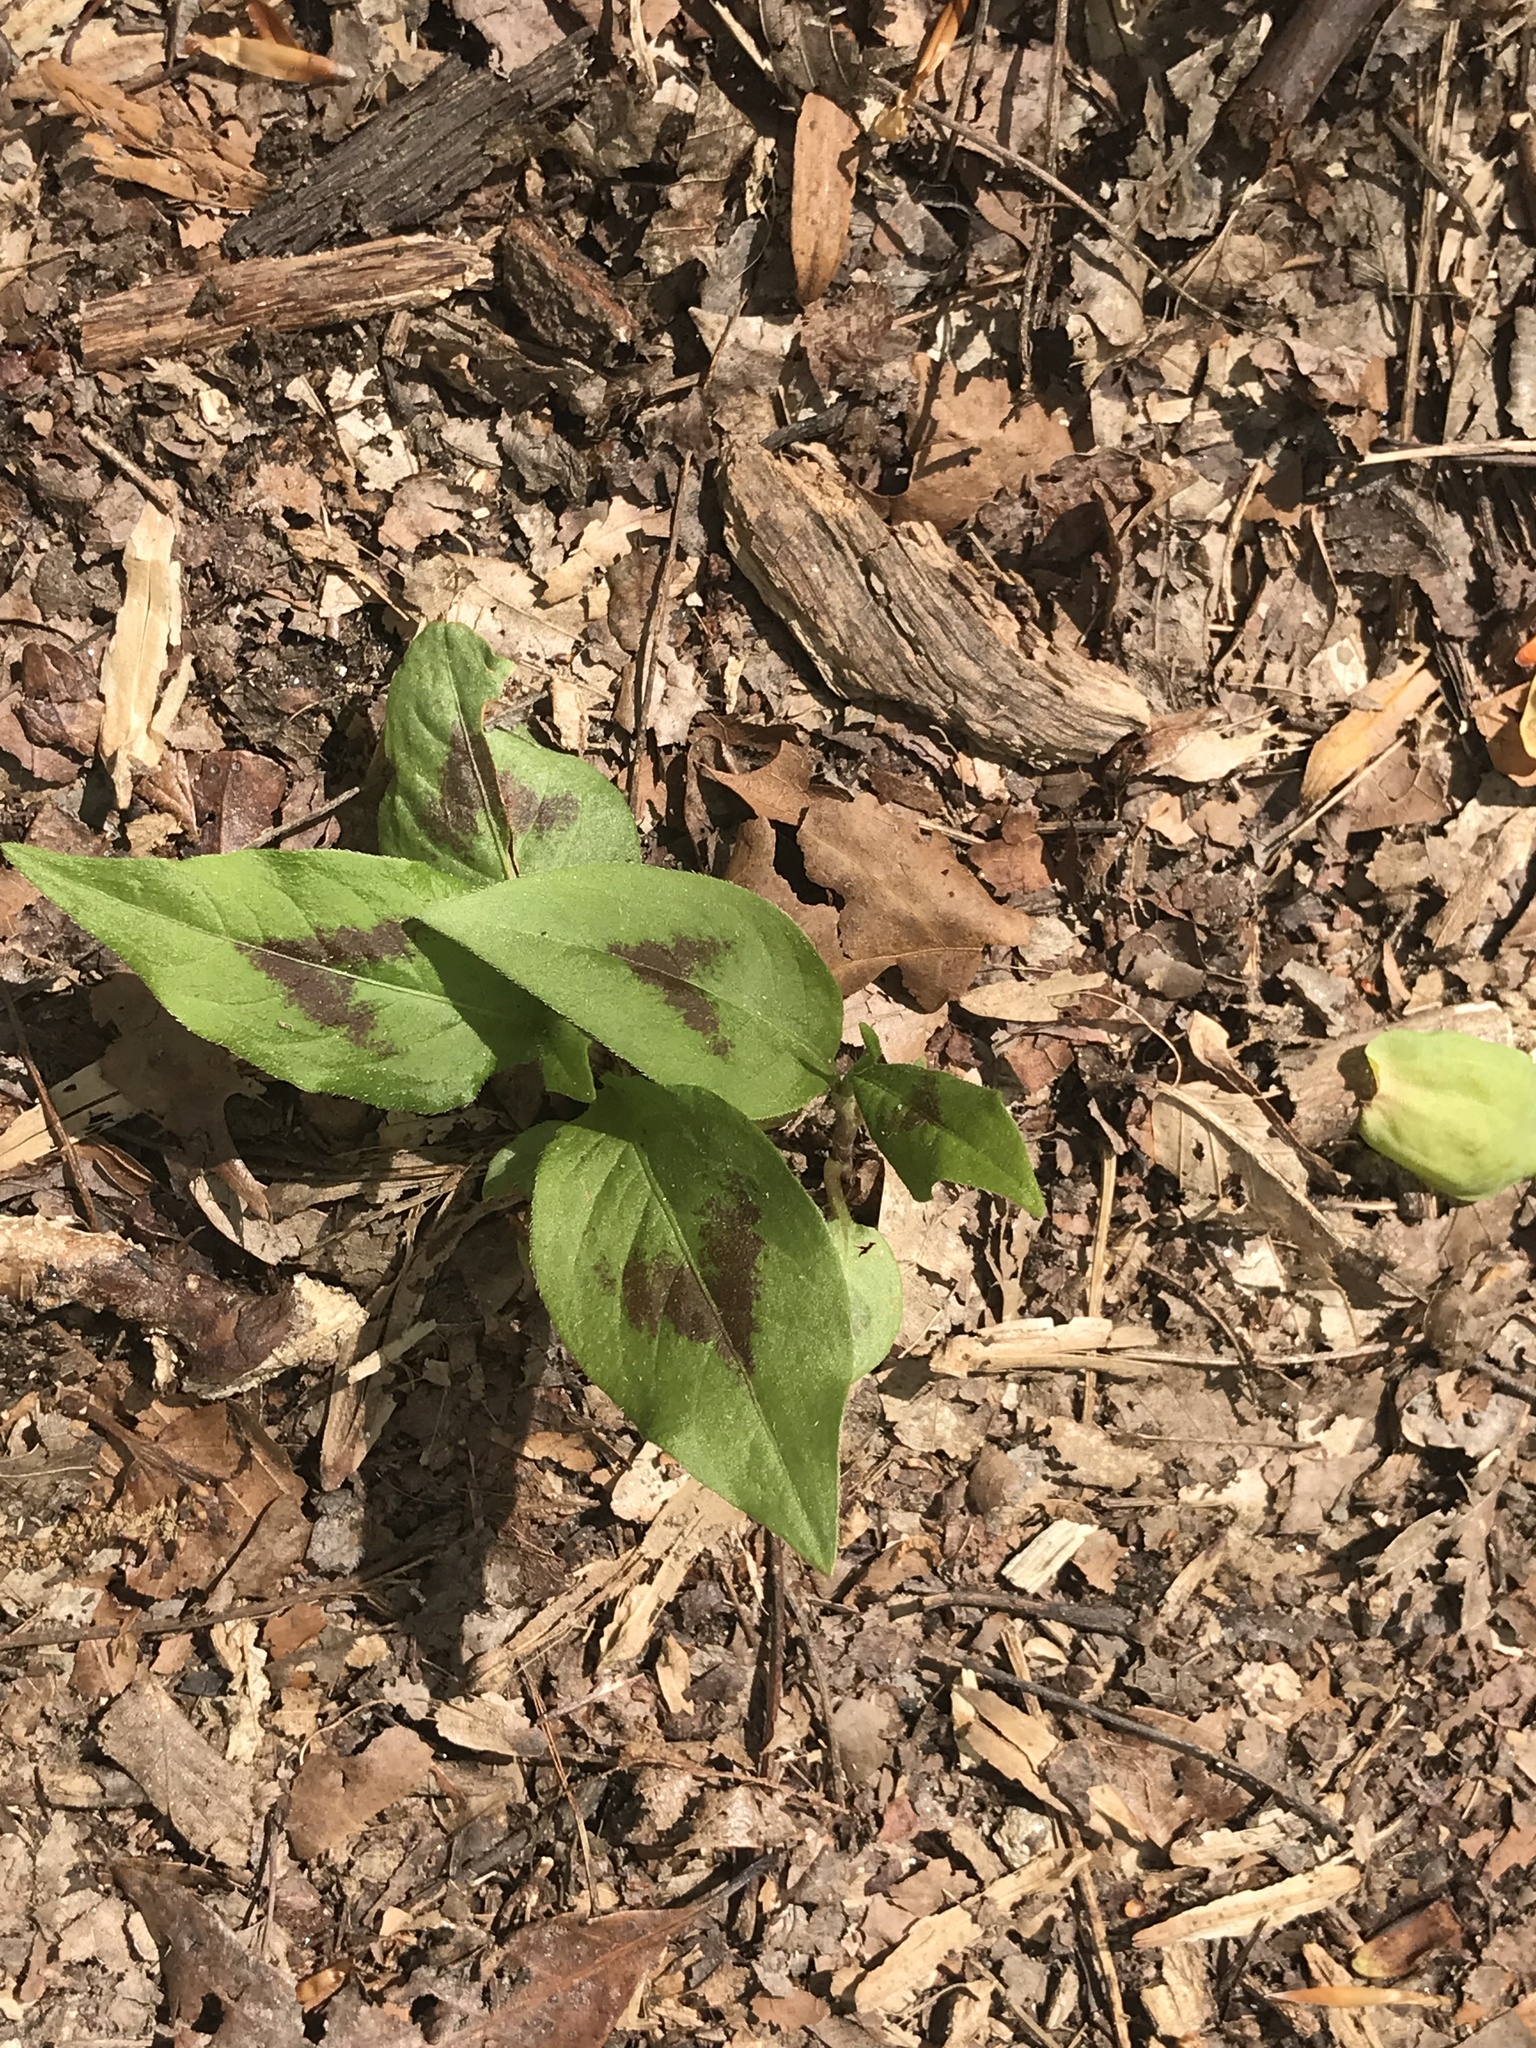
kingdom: Plantae
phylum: Tracheophyta
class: Magnoliopsida
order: Caryophyllales
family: Polygonaceae
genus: Persicaria
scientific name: Persicaria virginiana
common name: Jumpseed
